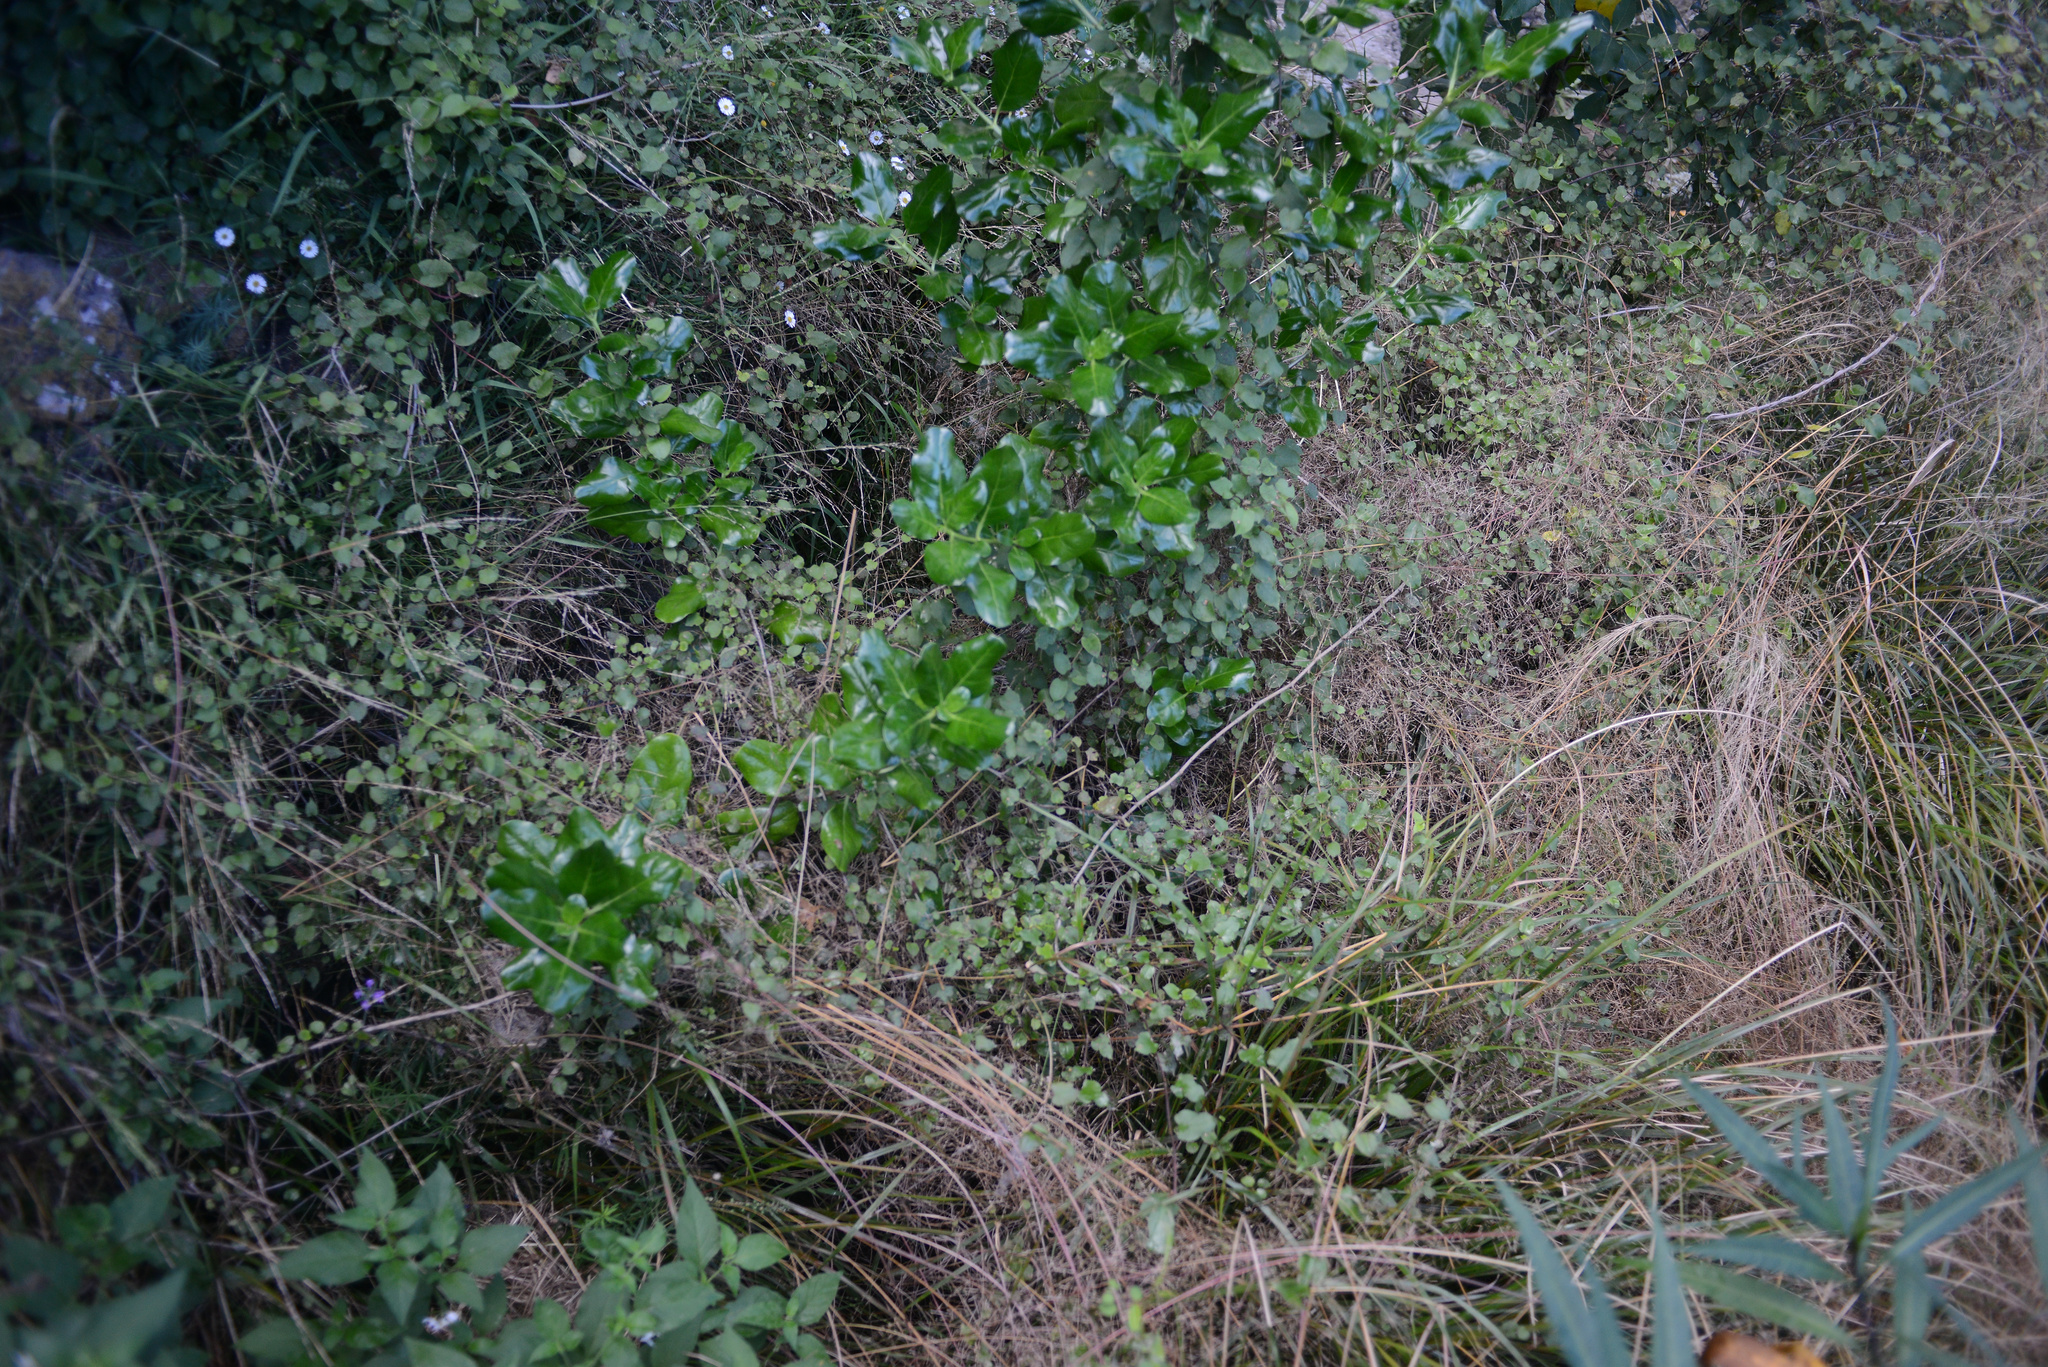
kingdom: Plantae
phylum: Tracheophyta
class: Magnoliopsida
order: Gentianales
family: Rubiaceae
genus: Coprosma
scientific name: Coprosma repens
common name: Tree bedstraw
